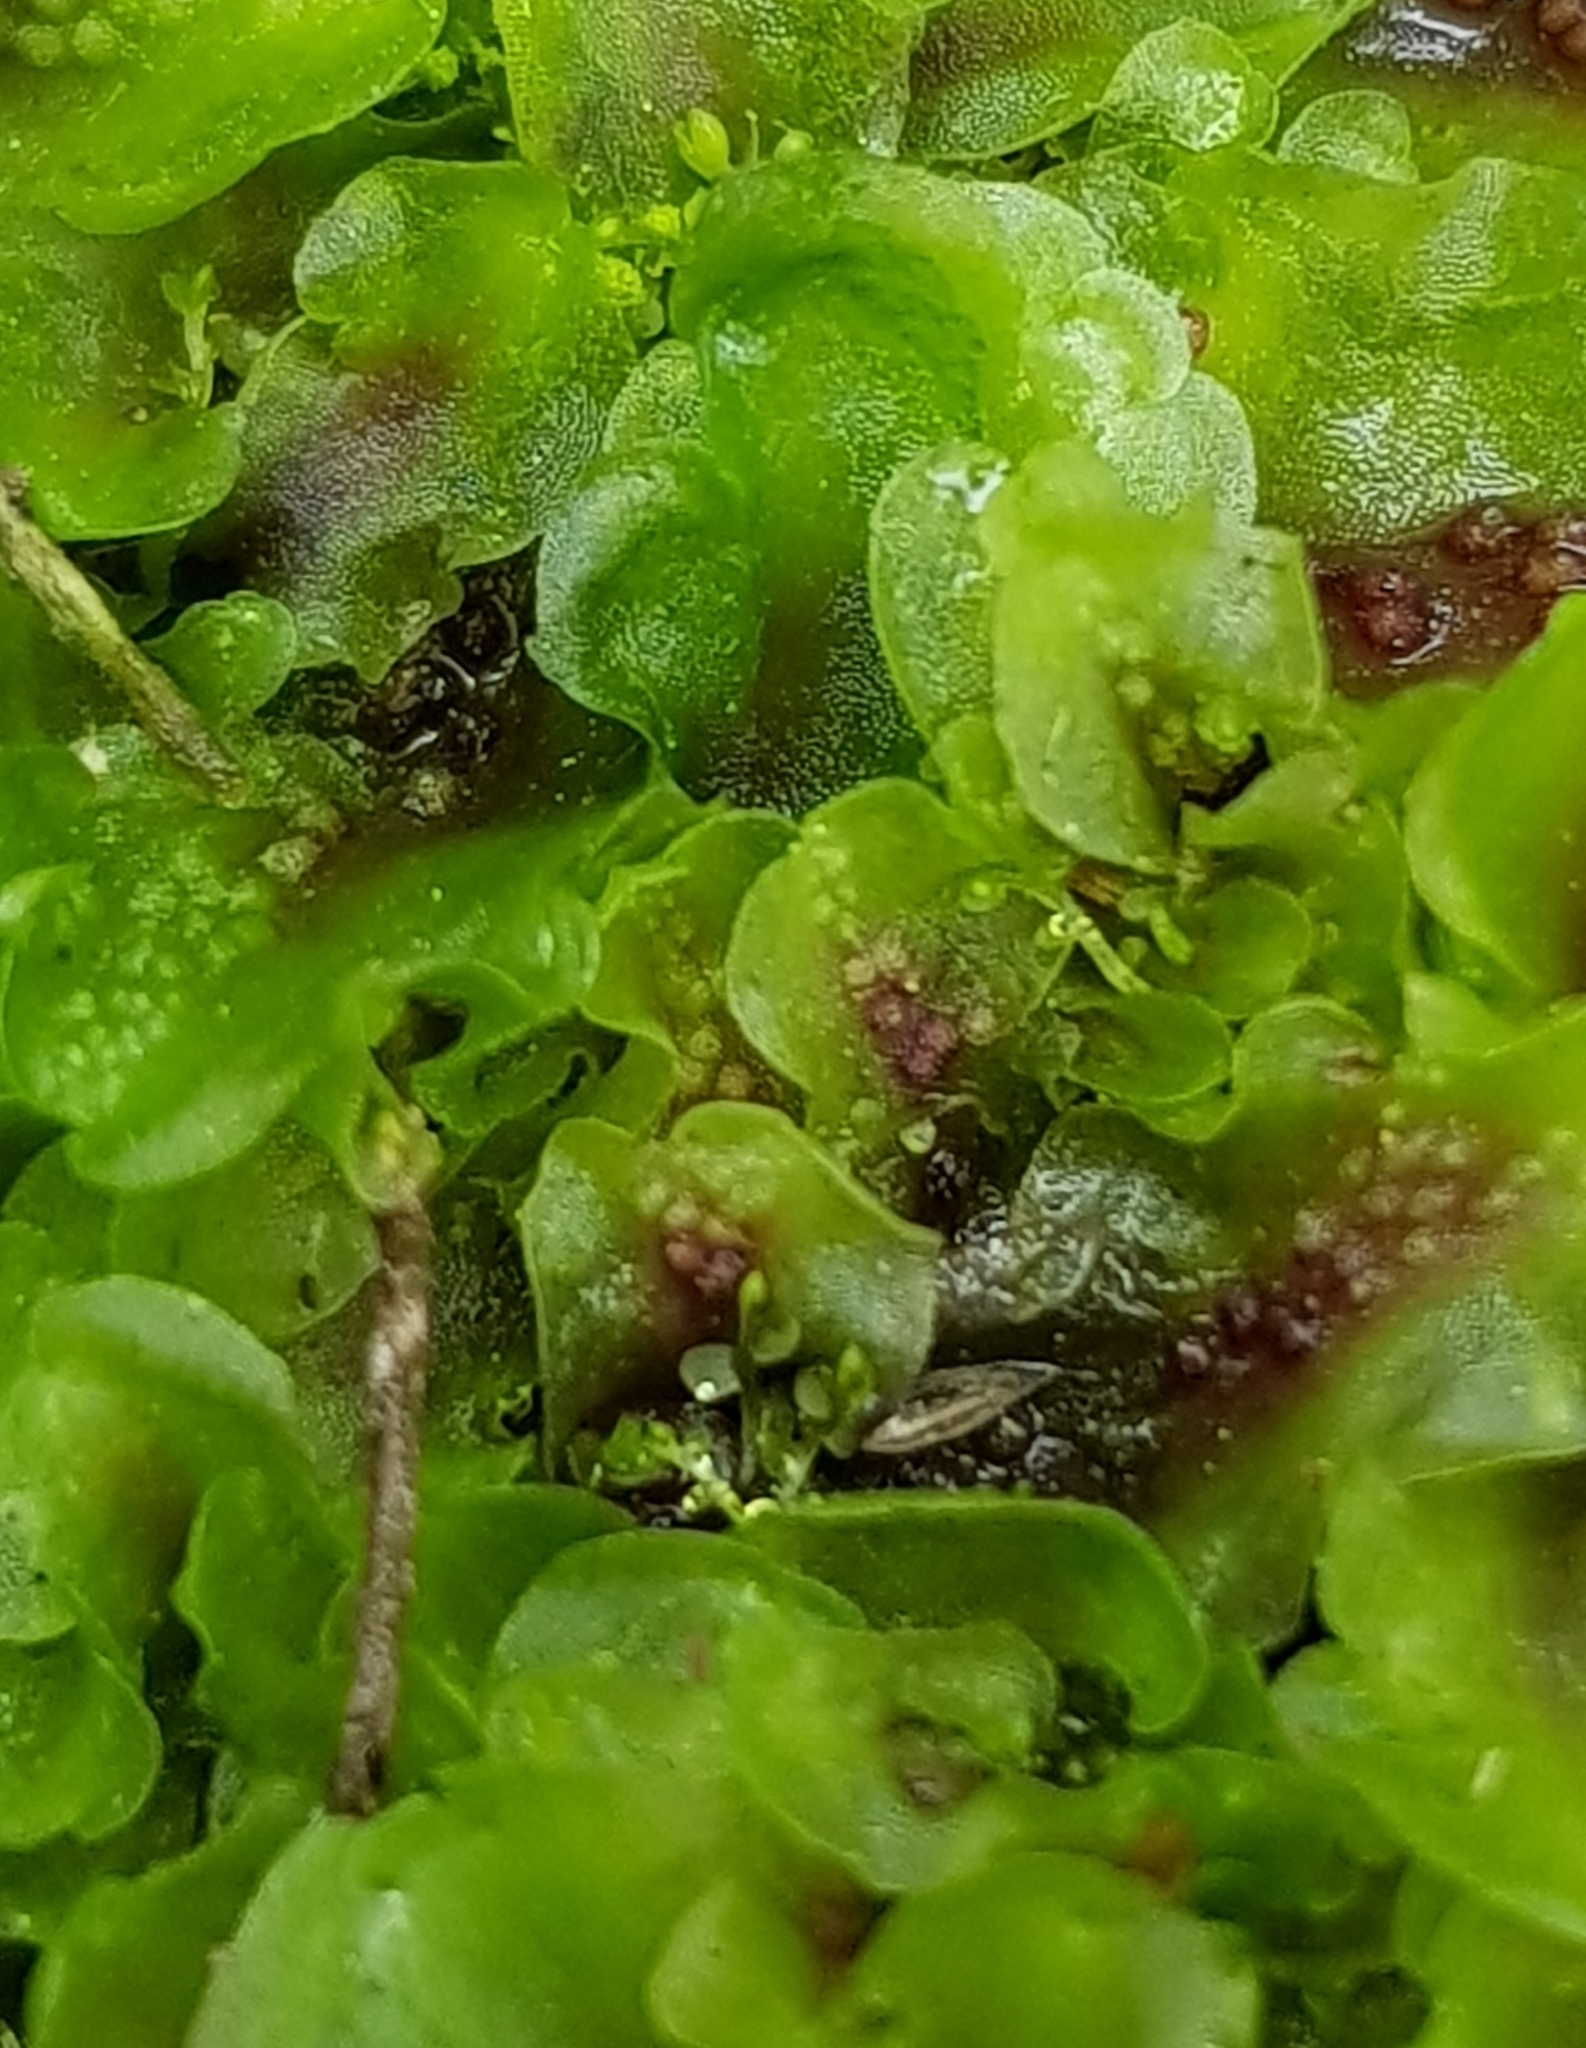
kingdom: Plantae
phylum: Marchantiophyta
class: Jungermanniopsida
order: Pelliales
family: Pelliaceae
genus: Pellia
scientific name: Pellia neesiana
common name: Nees  pellia
